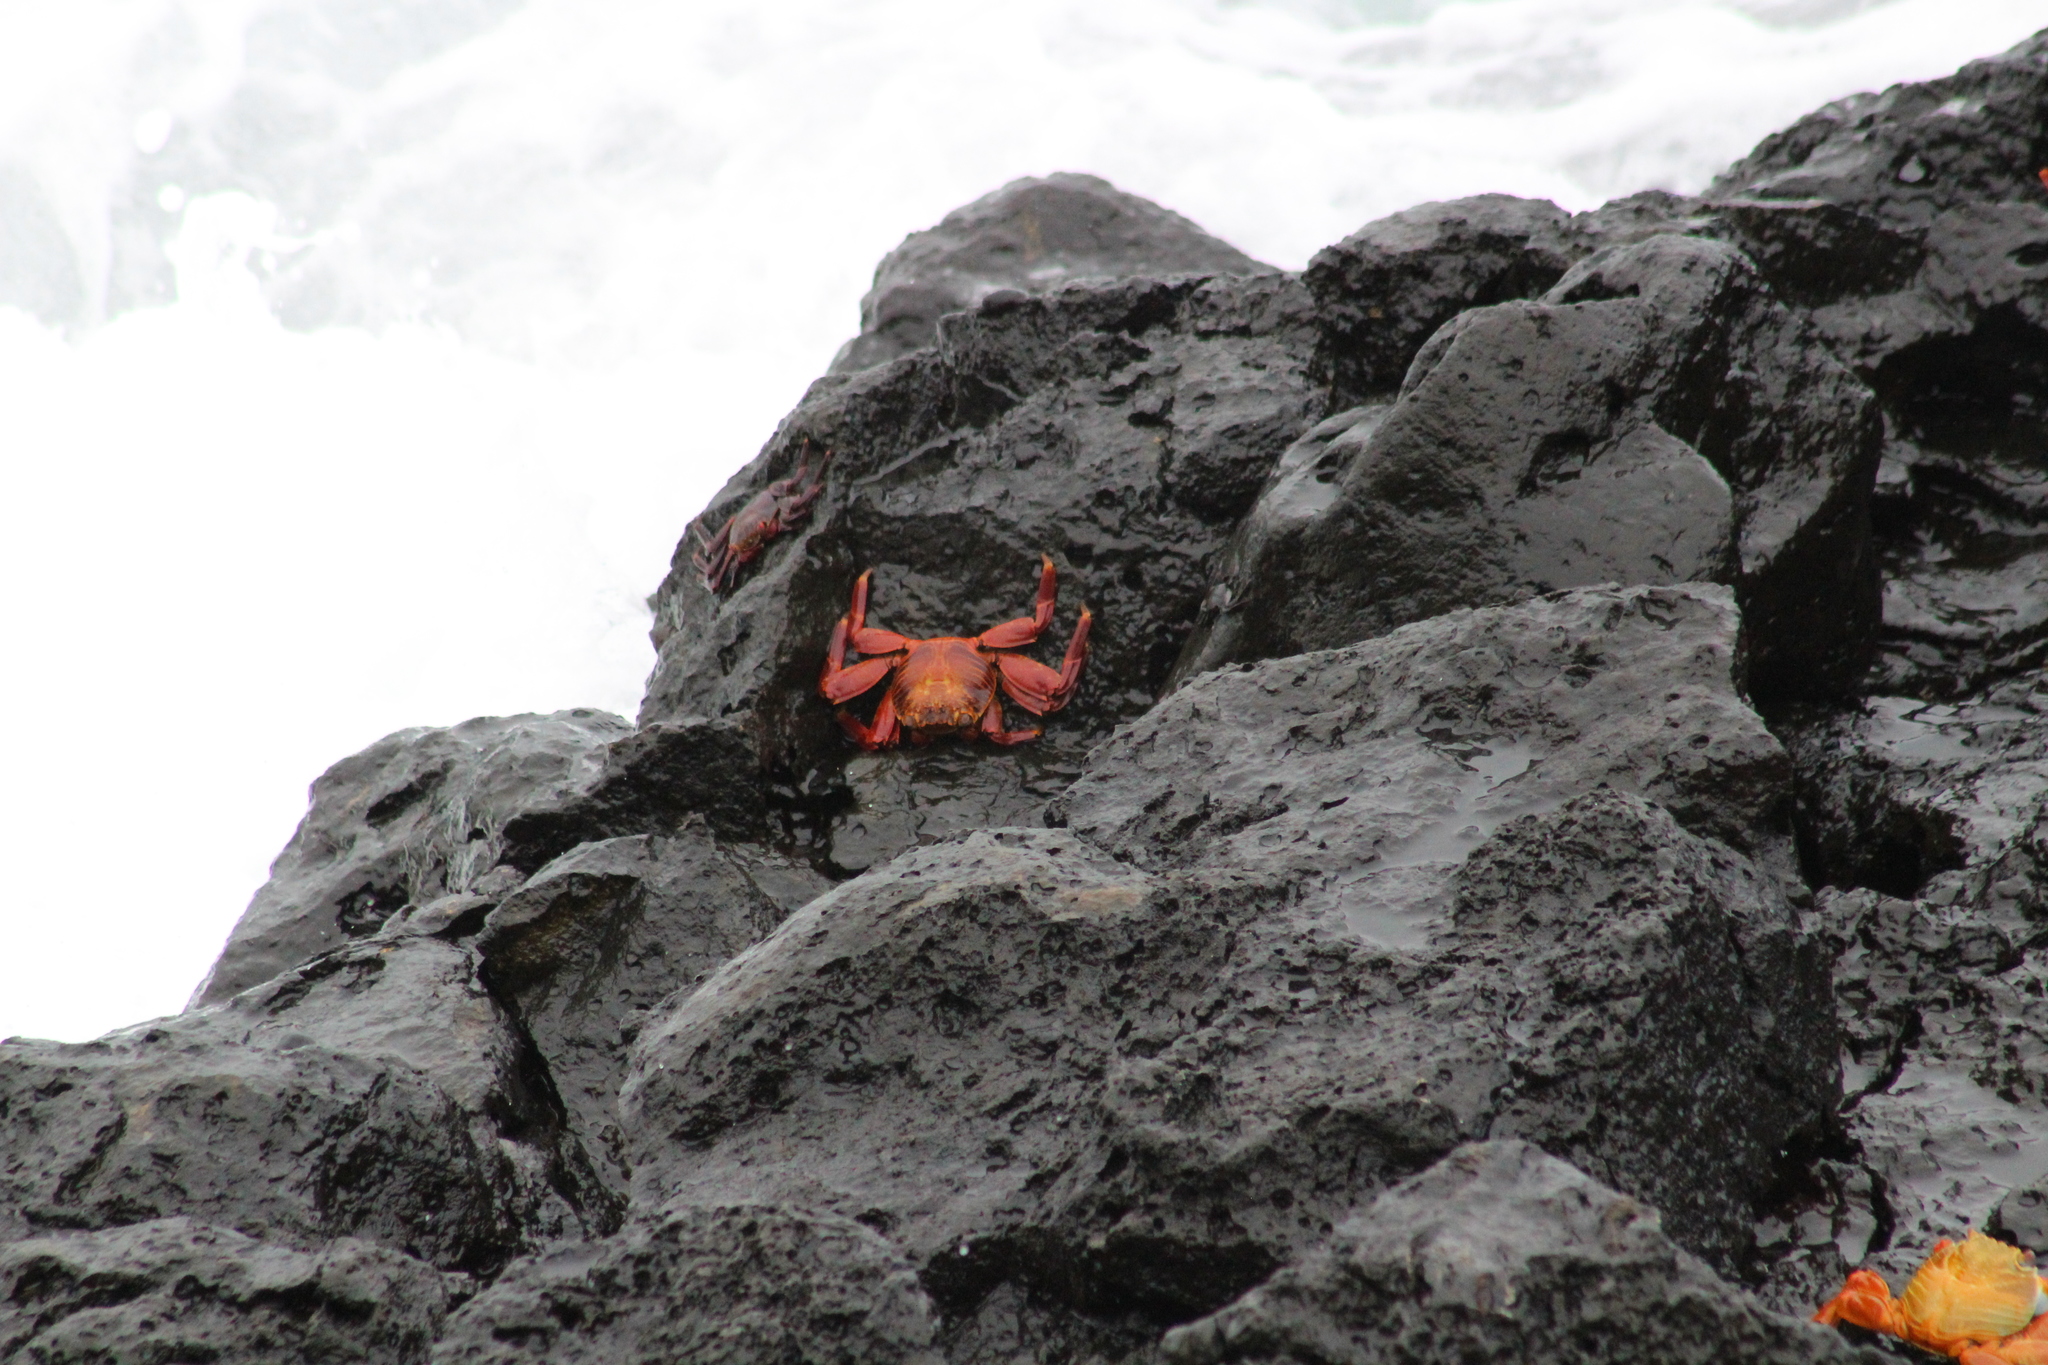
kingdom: Animalia
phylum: Arthropoda
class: Malacostraca
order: Decapoda
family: Grapsidae
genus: Grapsus
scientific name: Grapsus grapsus
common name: Sally lightfoot
